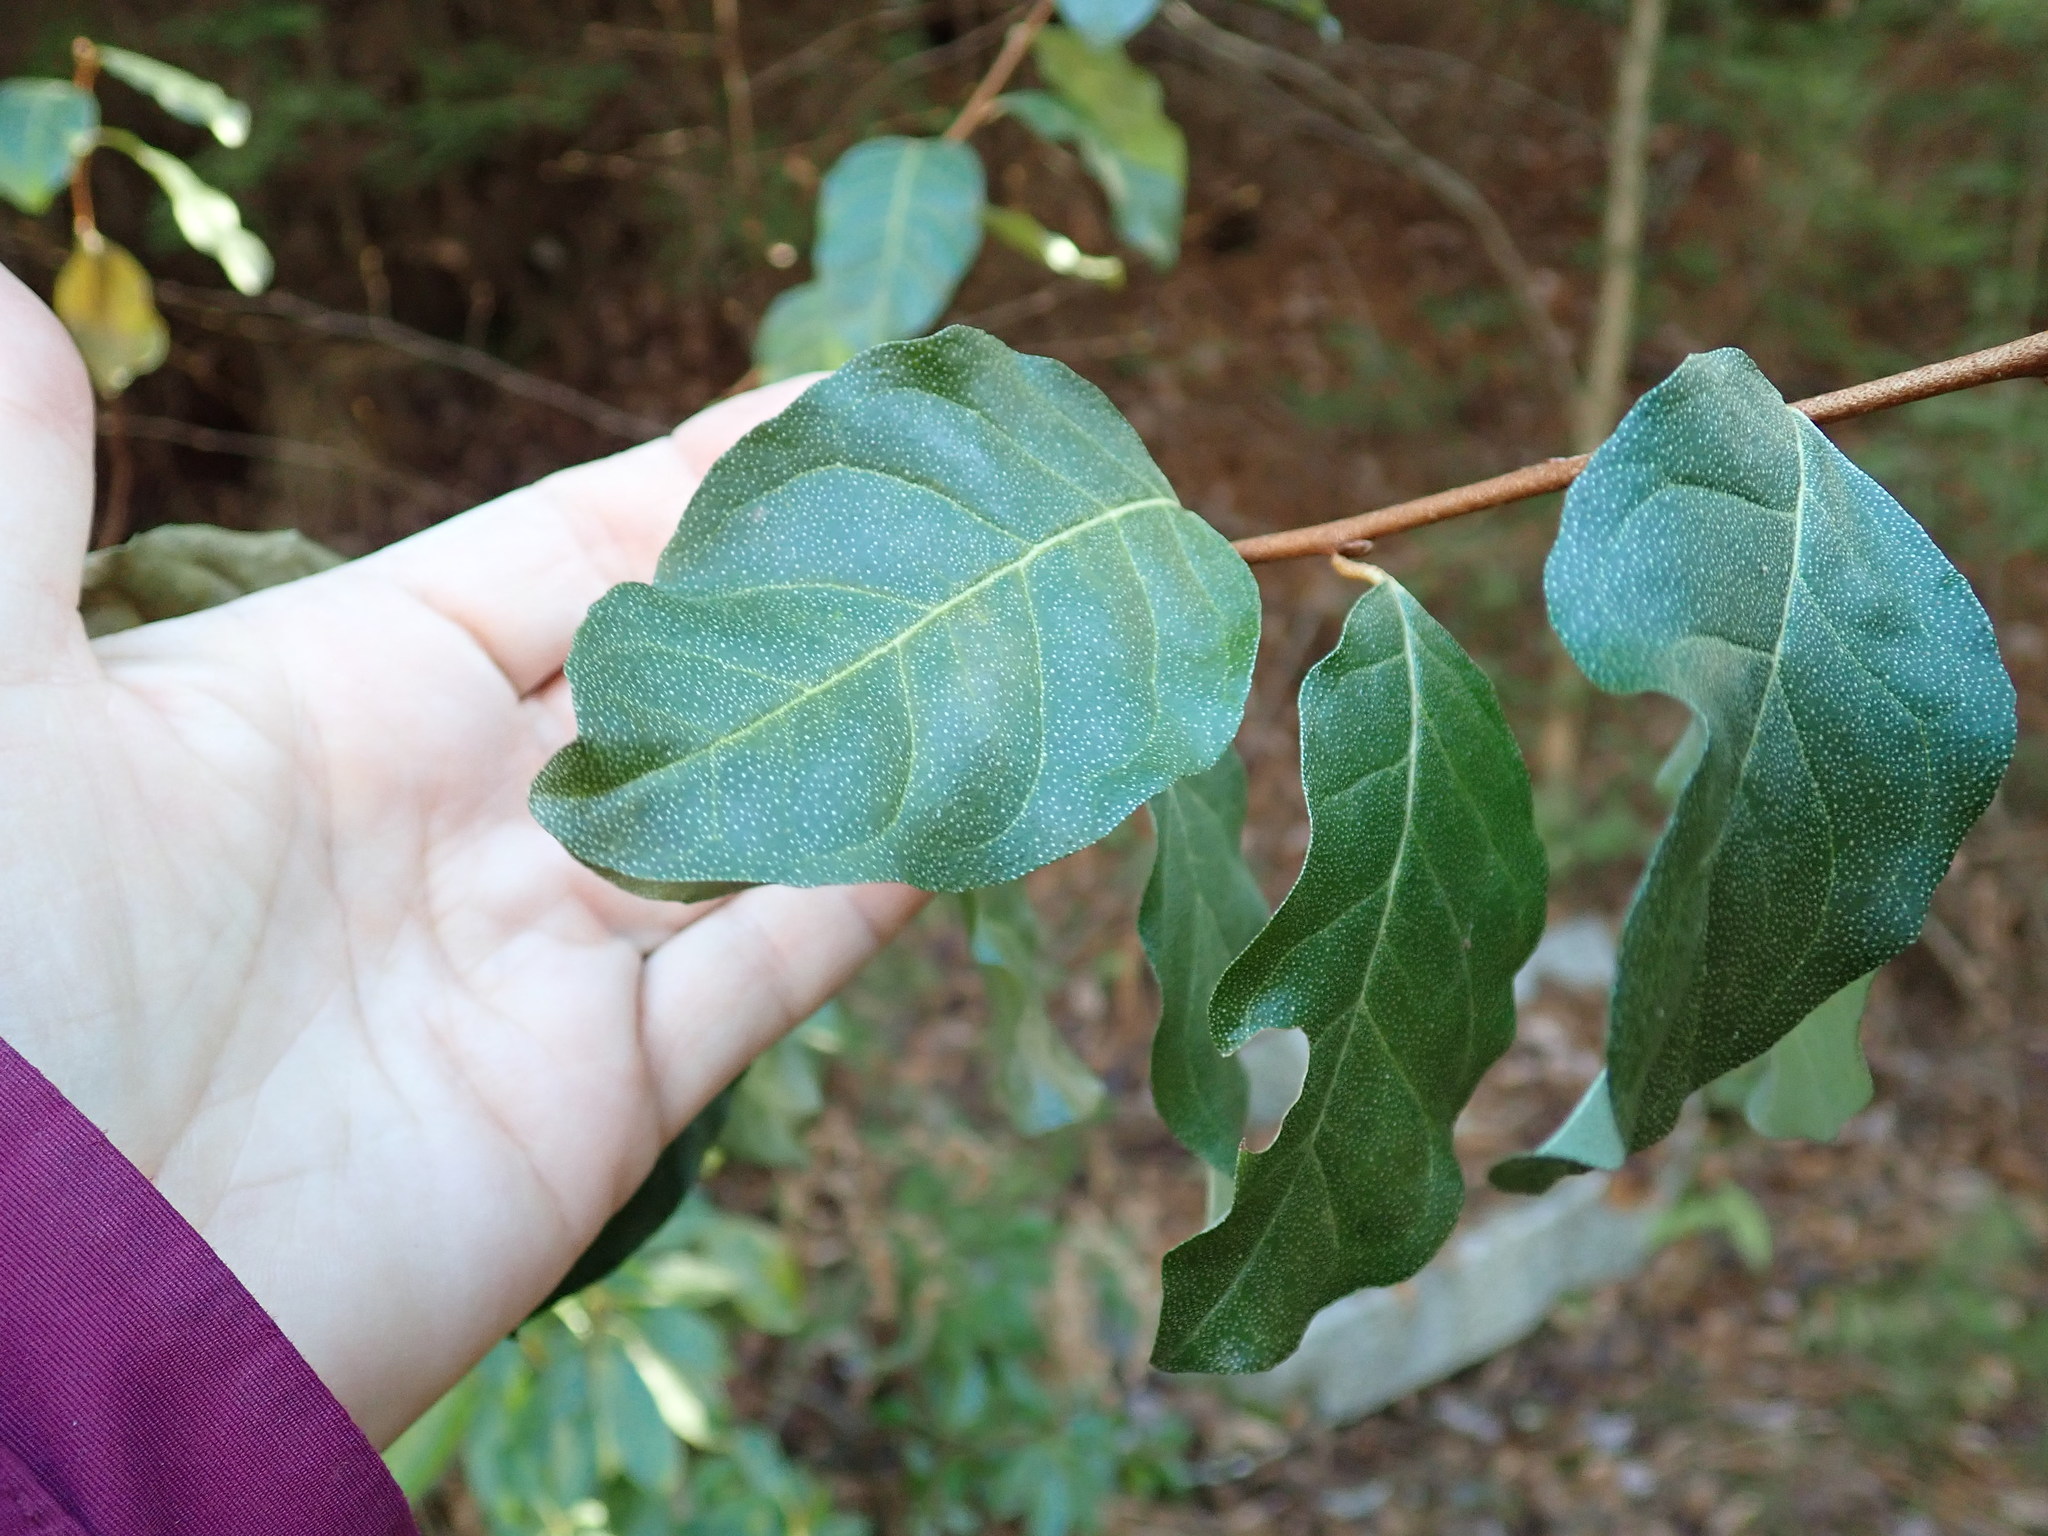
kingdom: Plantae
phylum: Tracheophyta
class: Magnoliopsida
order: Rosales
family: Elaeagnaceae
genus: Elaeagnus
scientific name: Elaeagnus umbellata
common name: Autumn olive
